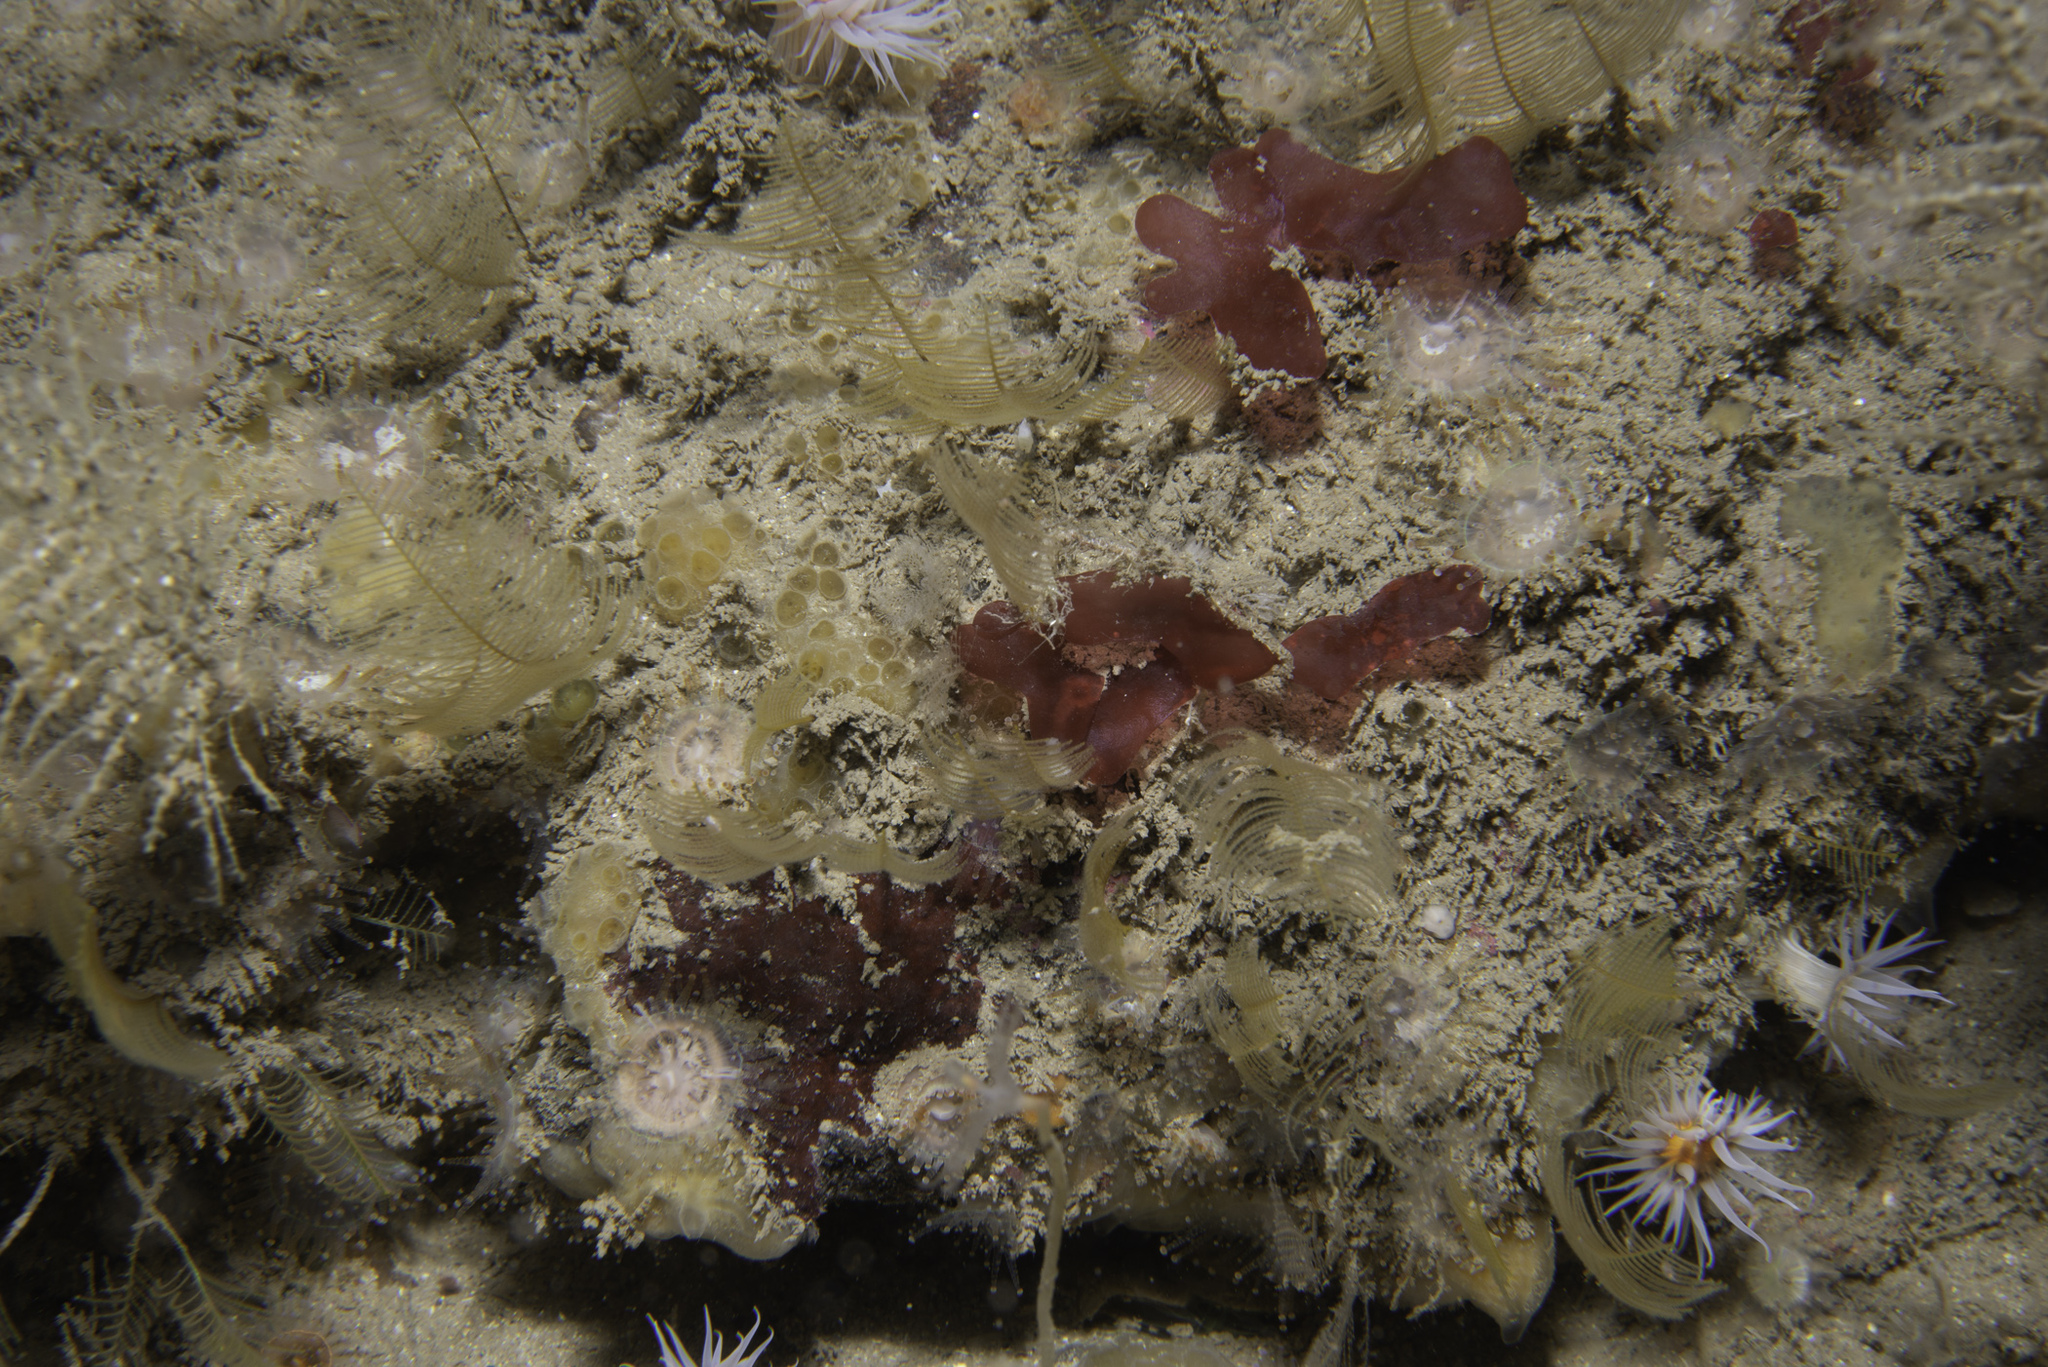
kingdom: Animalia
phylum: Cnidaria
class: Hydrozoa
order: Leptothecata
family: Aglaopheniidae
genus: Aglaophenia
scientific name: Aglaophenia tubulifera
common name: Plume hydroid
